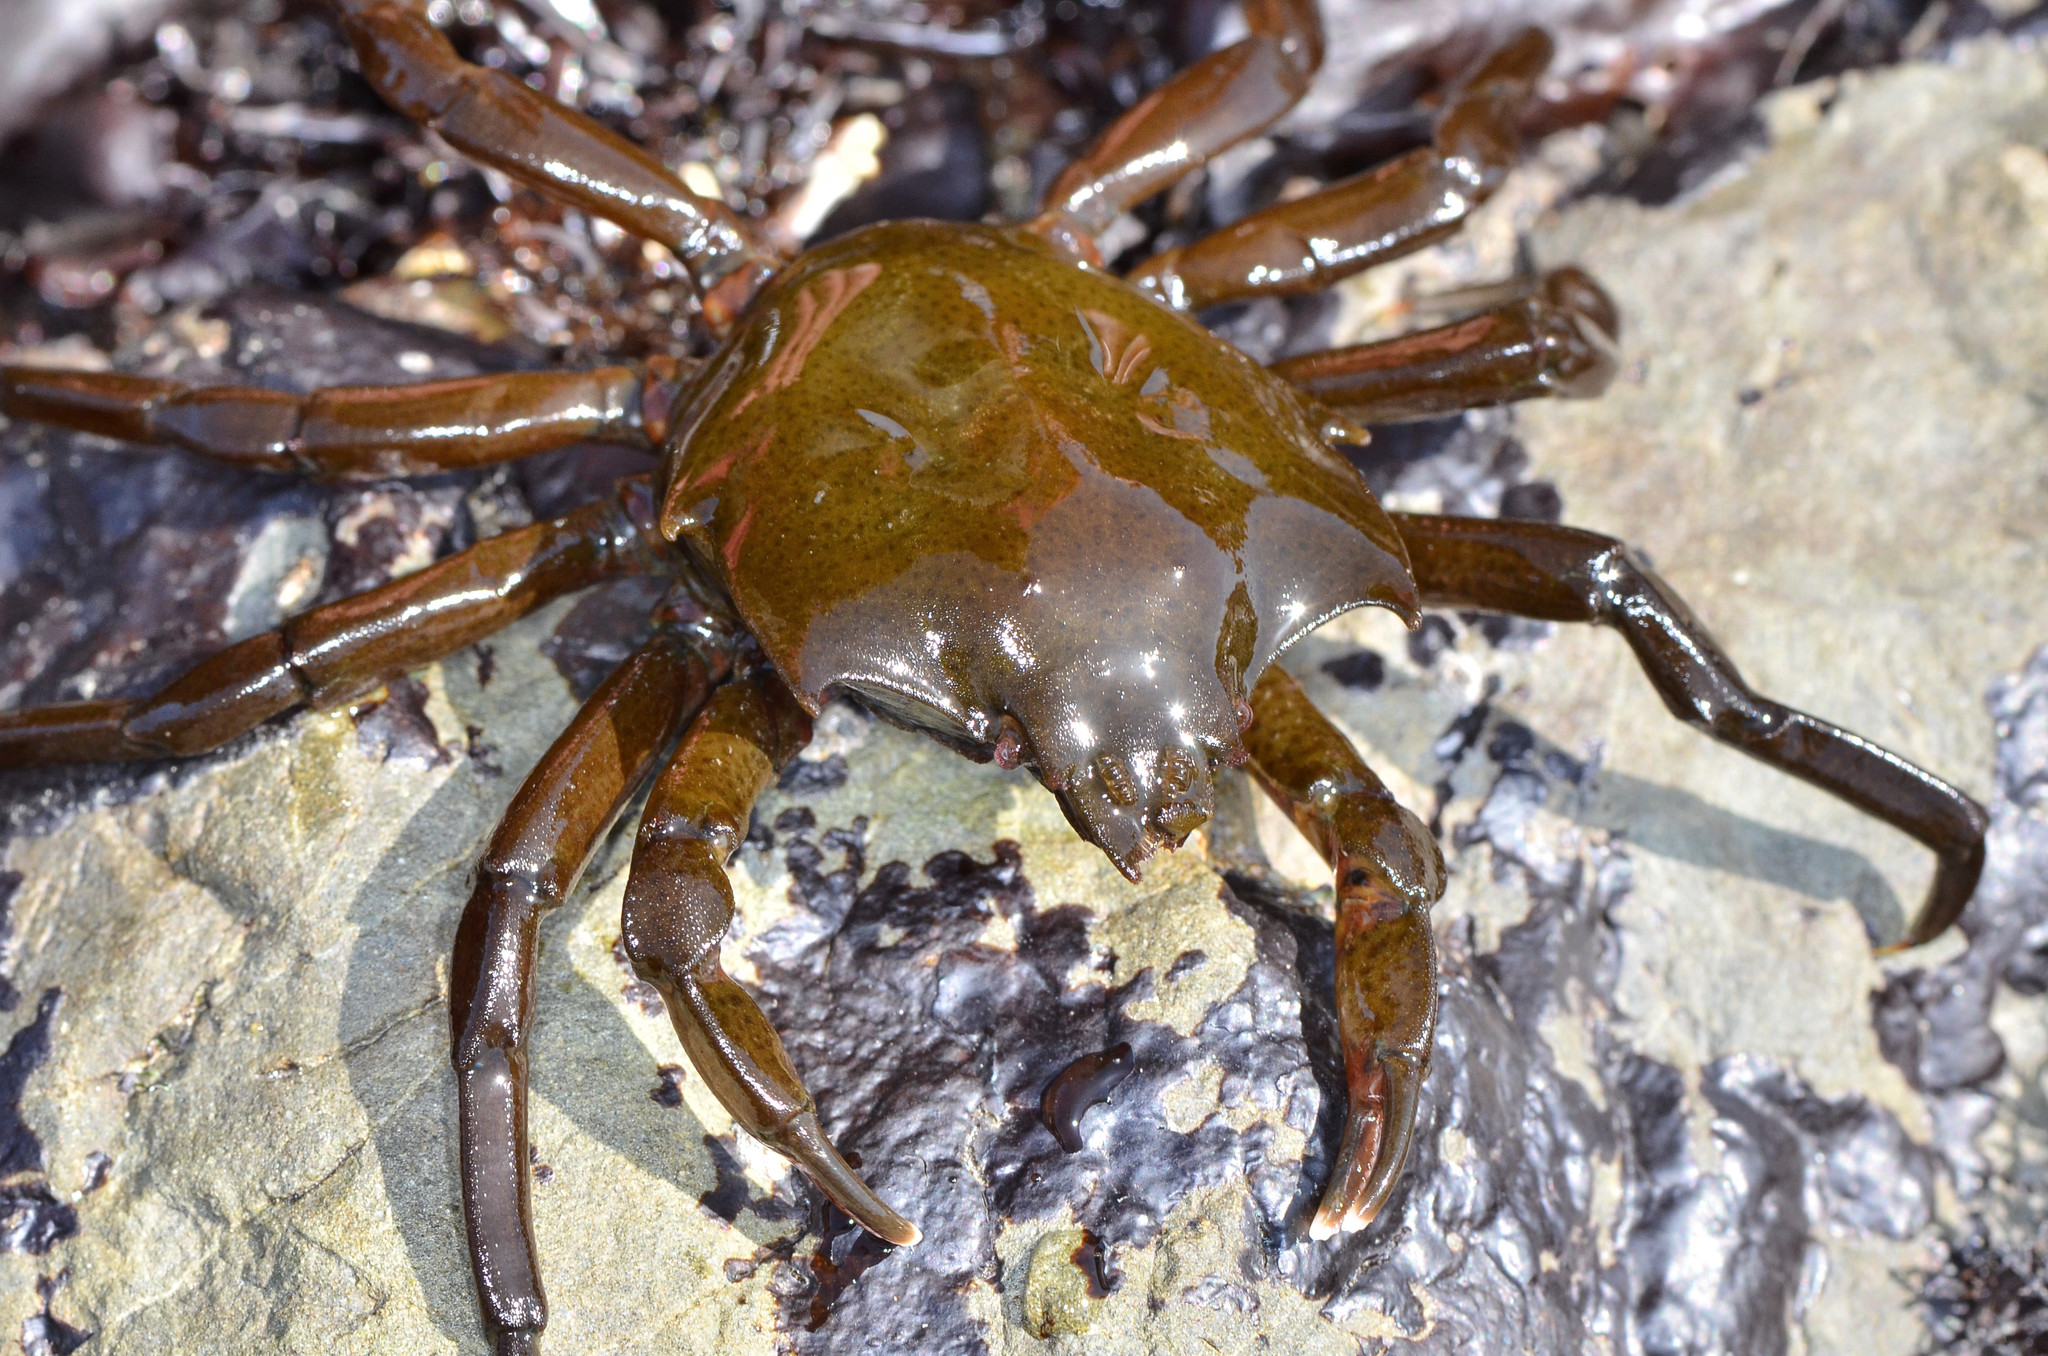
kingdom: Animalia
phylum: Arthropoda
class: Malacostraca
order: Decapoda
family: Epialtidae
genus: Pugettia
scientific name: Pugettia producta
